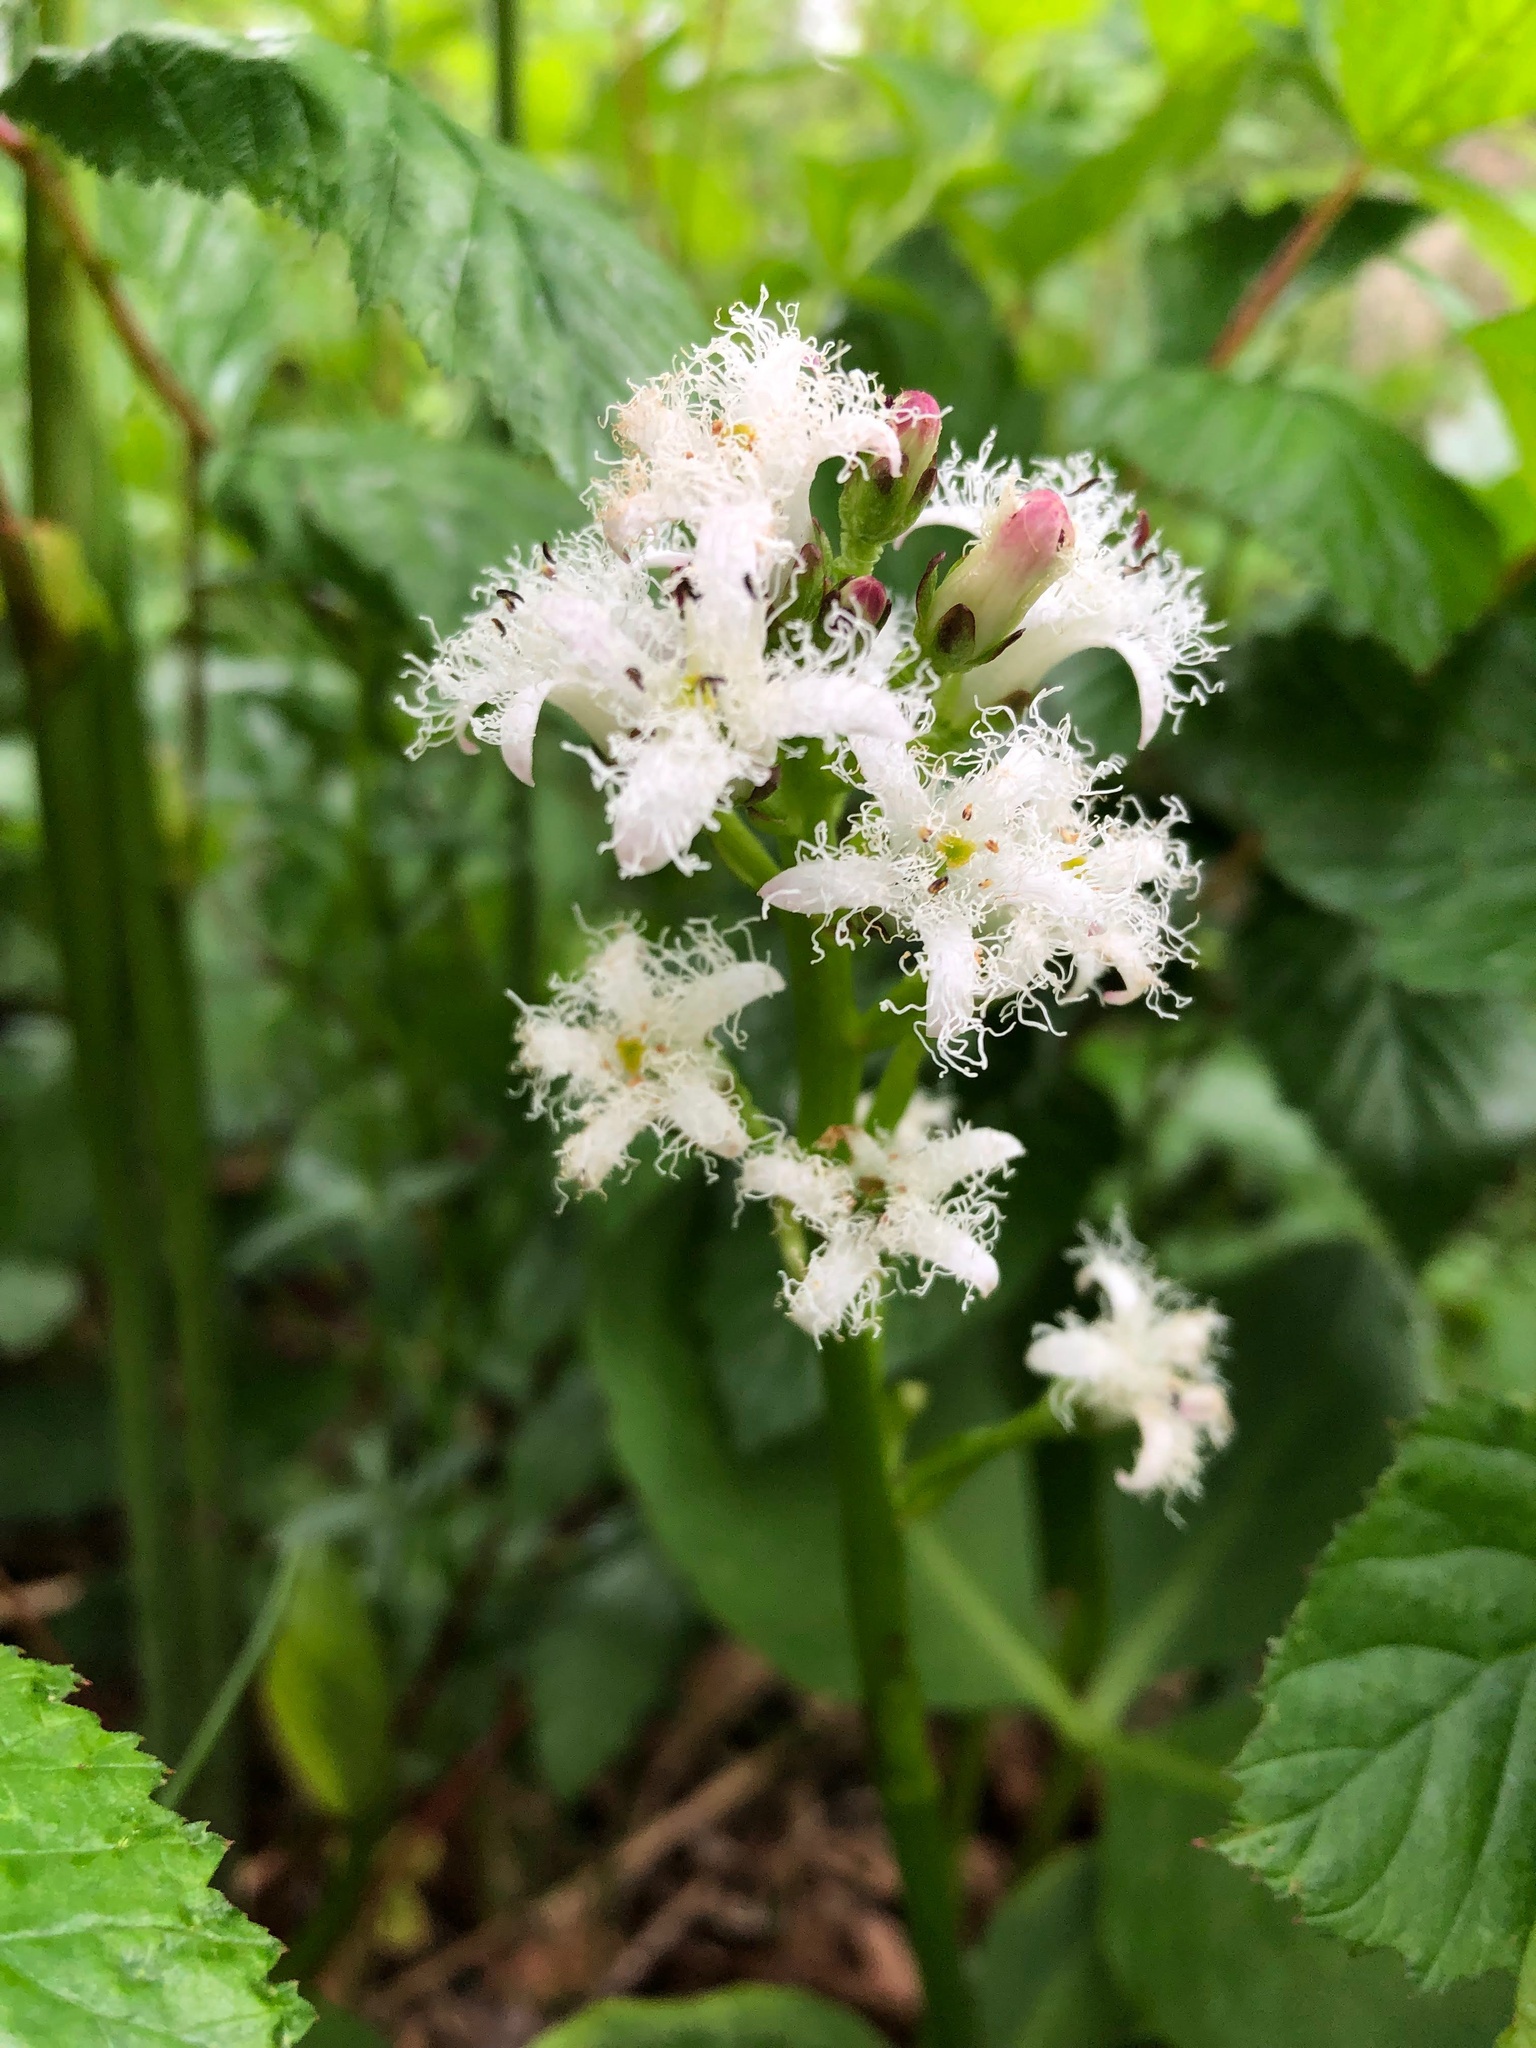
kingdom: Plantae
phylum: Tracheophyta
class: Magnoliopsida
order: Asterales
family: Menyanthaceae
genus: Menyanthes
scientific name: Menyanthes trifoliata
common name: Bogbean
